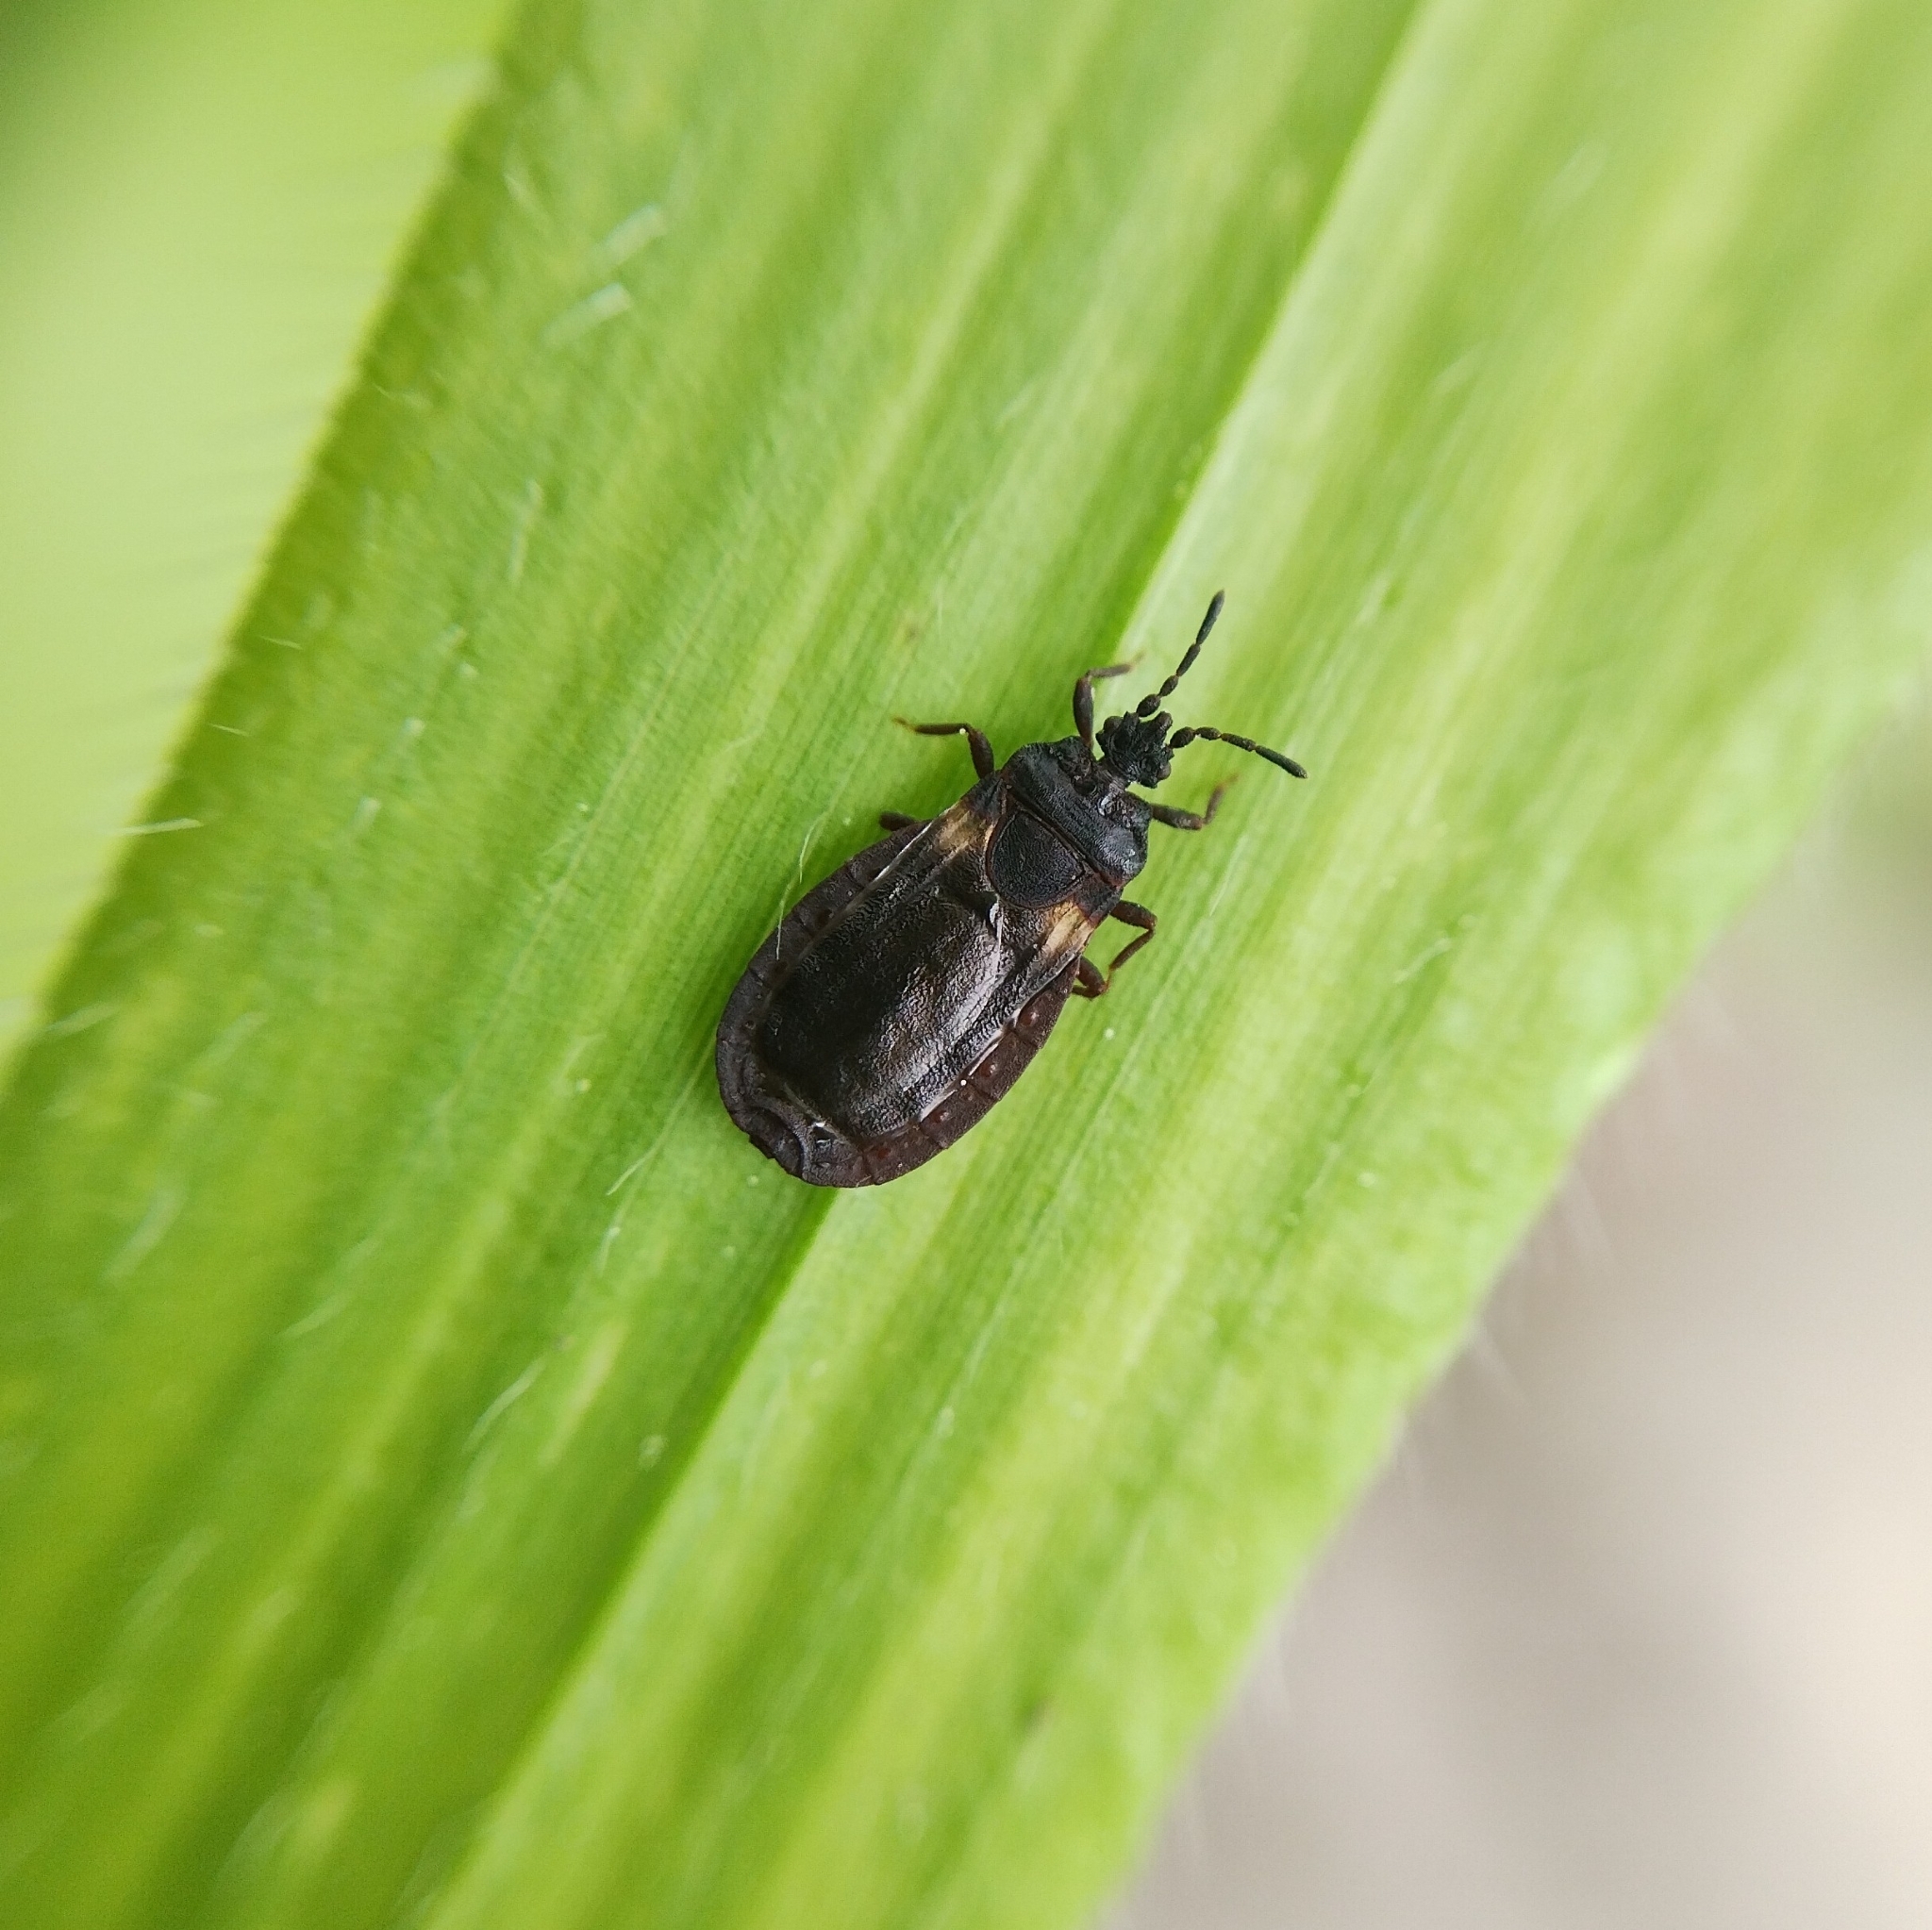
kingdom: Animalia
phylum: Arthropoda
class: Insecta
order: Hemiptera
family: Aradidae
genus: Aneurus
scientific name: Aneurus avenius
